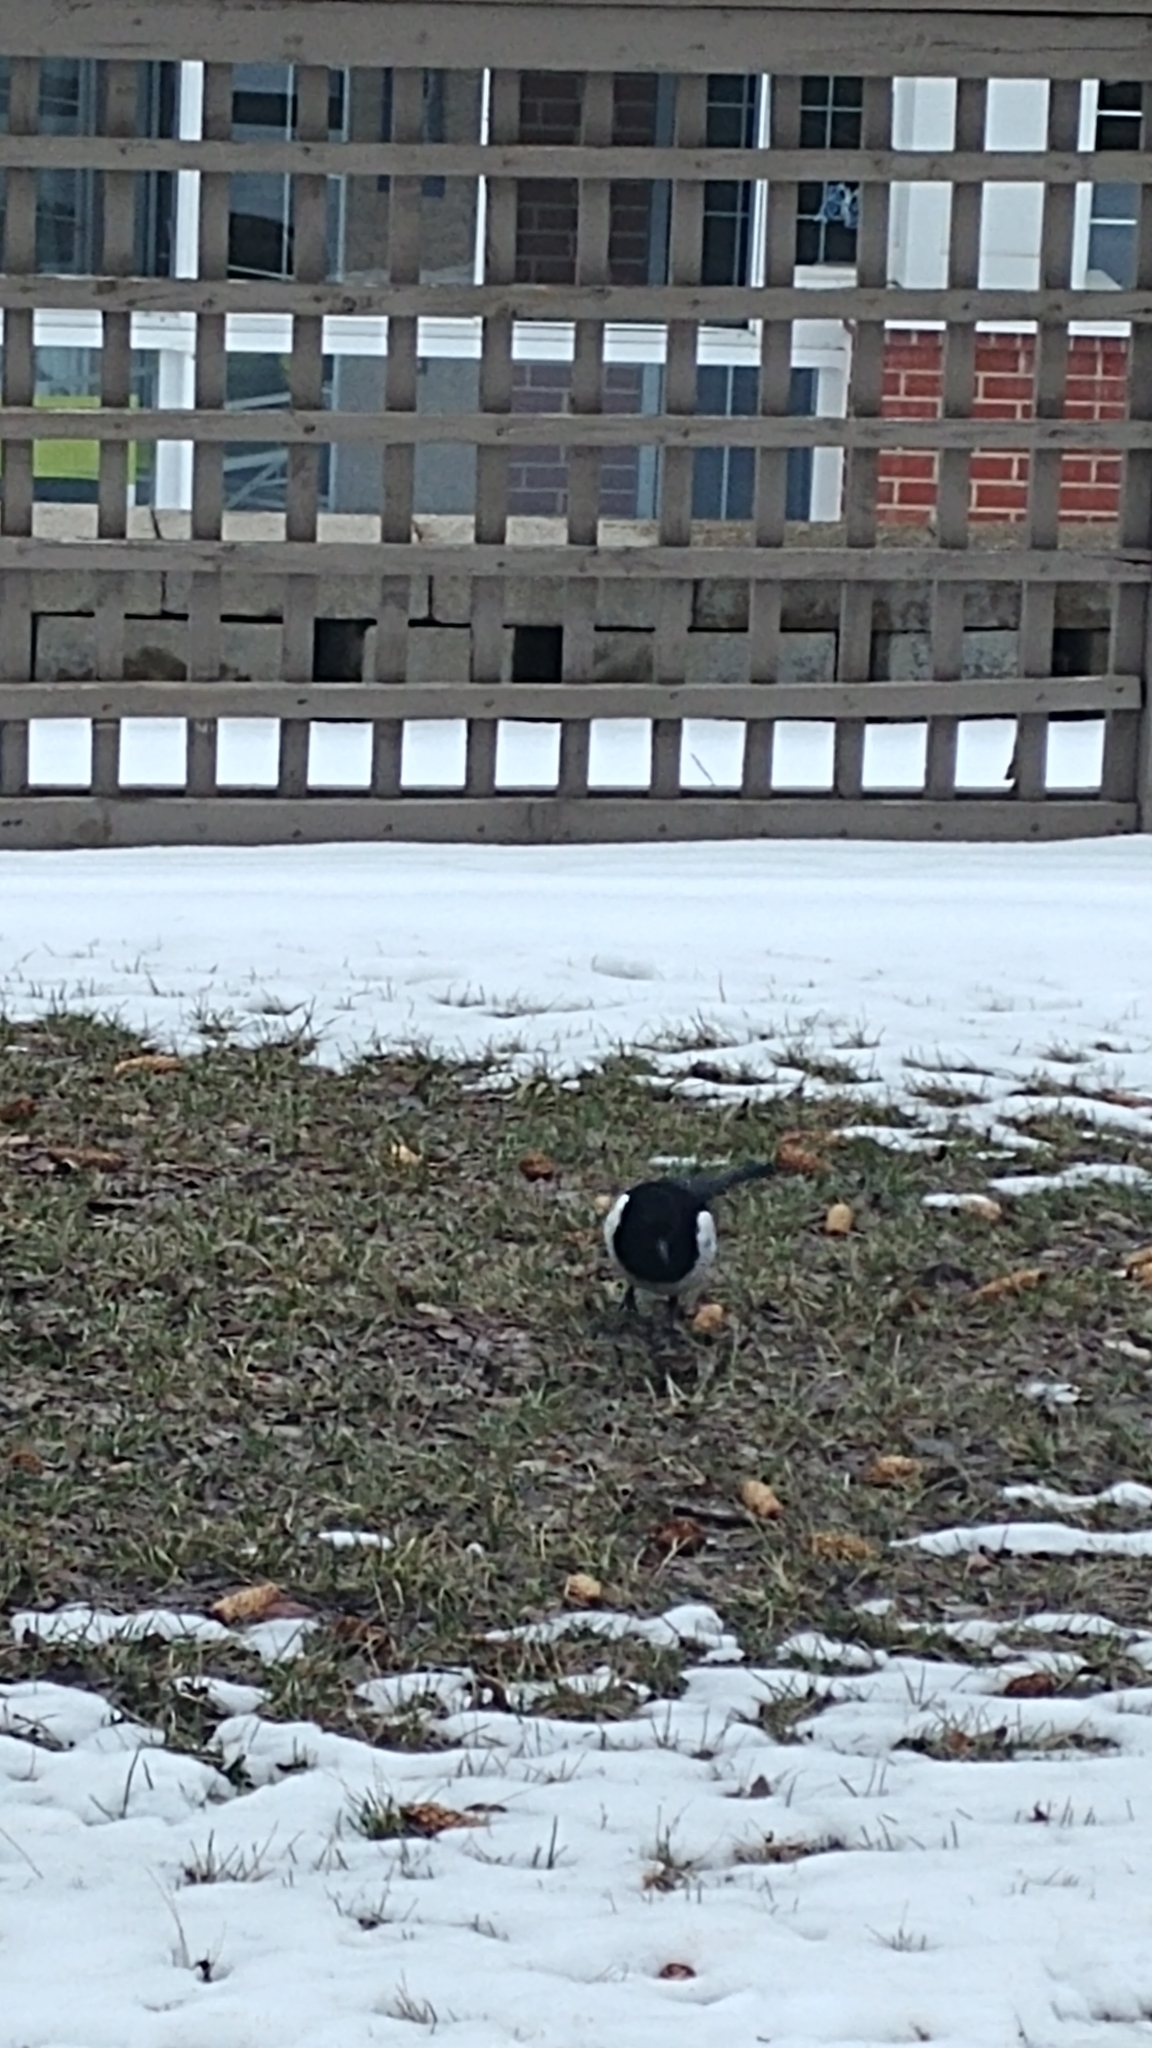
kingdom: Animalia
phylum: Chordata
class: Aves
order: Passeriformes
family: Corvidae
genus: Pica
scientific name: Pica hudsonia
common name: Black-billed magpie
